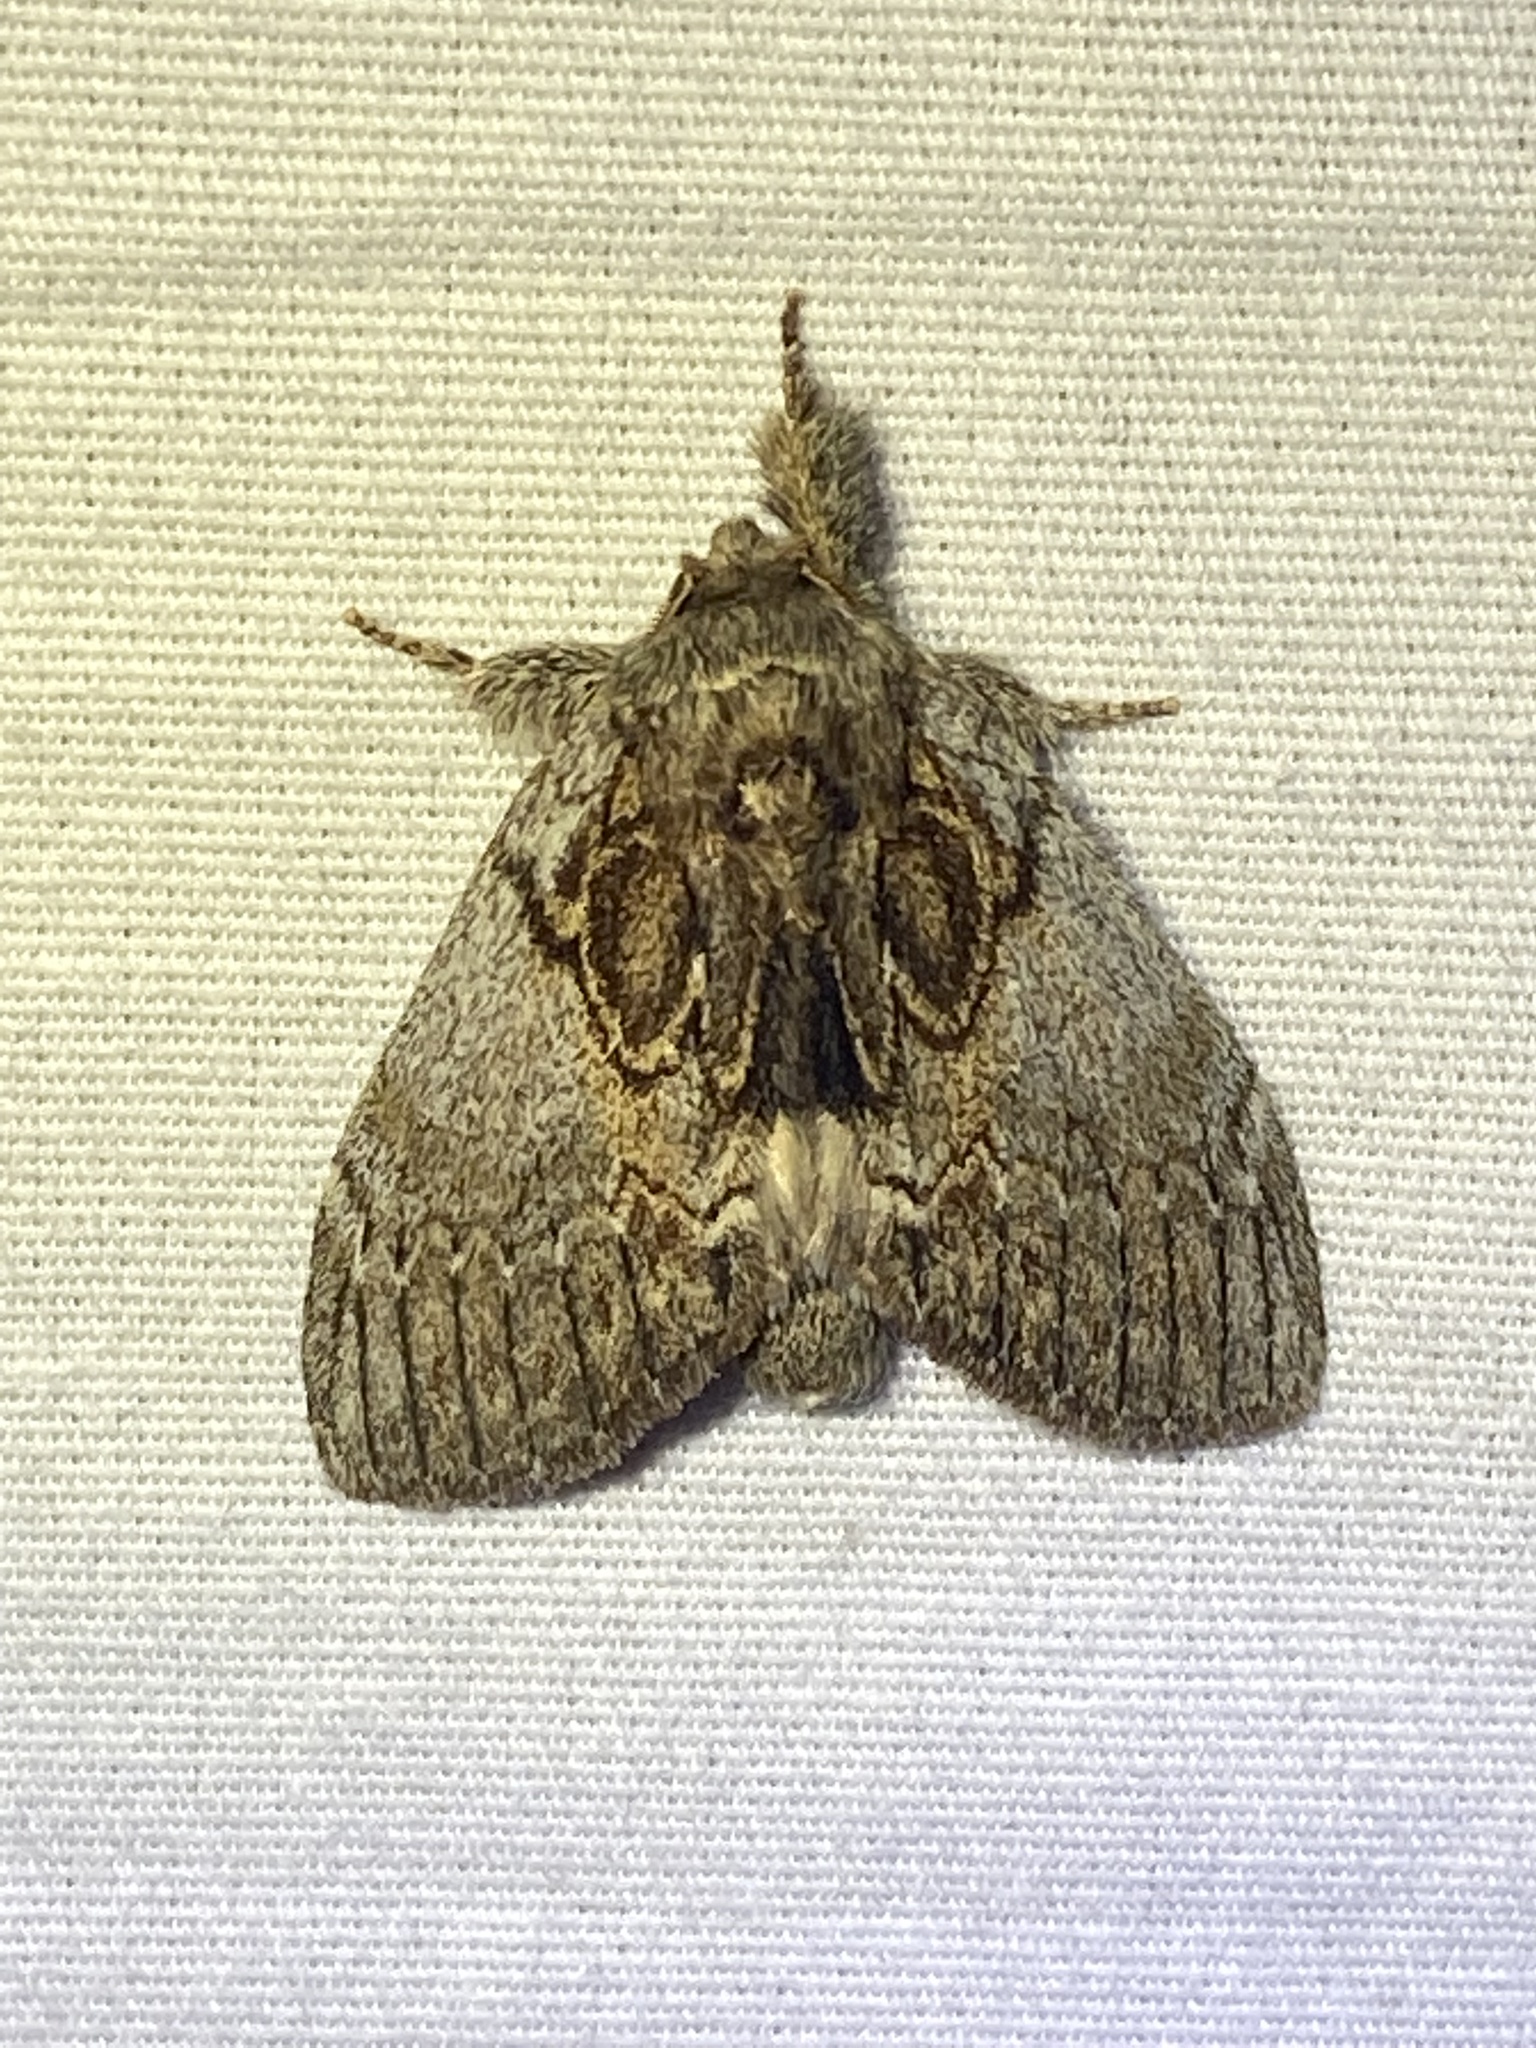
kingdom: Animalia
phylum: Arthropoda
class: Insecta
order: Lepidoptera
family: Notodontidae
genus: Peridea
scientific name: Peridea basitriens
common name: Oval-based prominent
